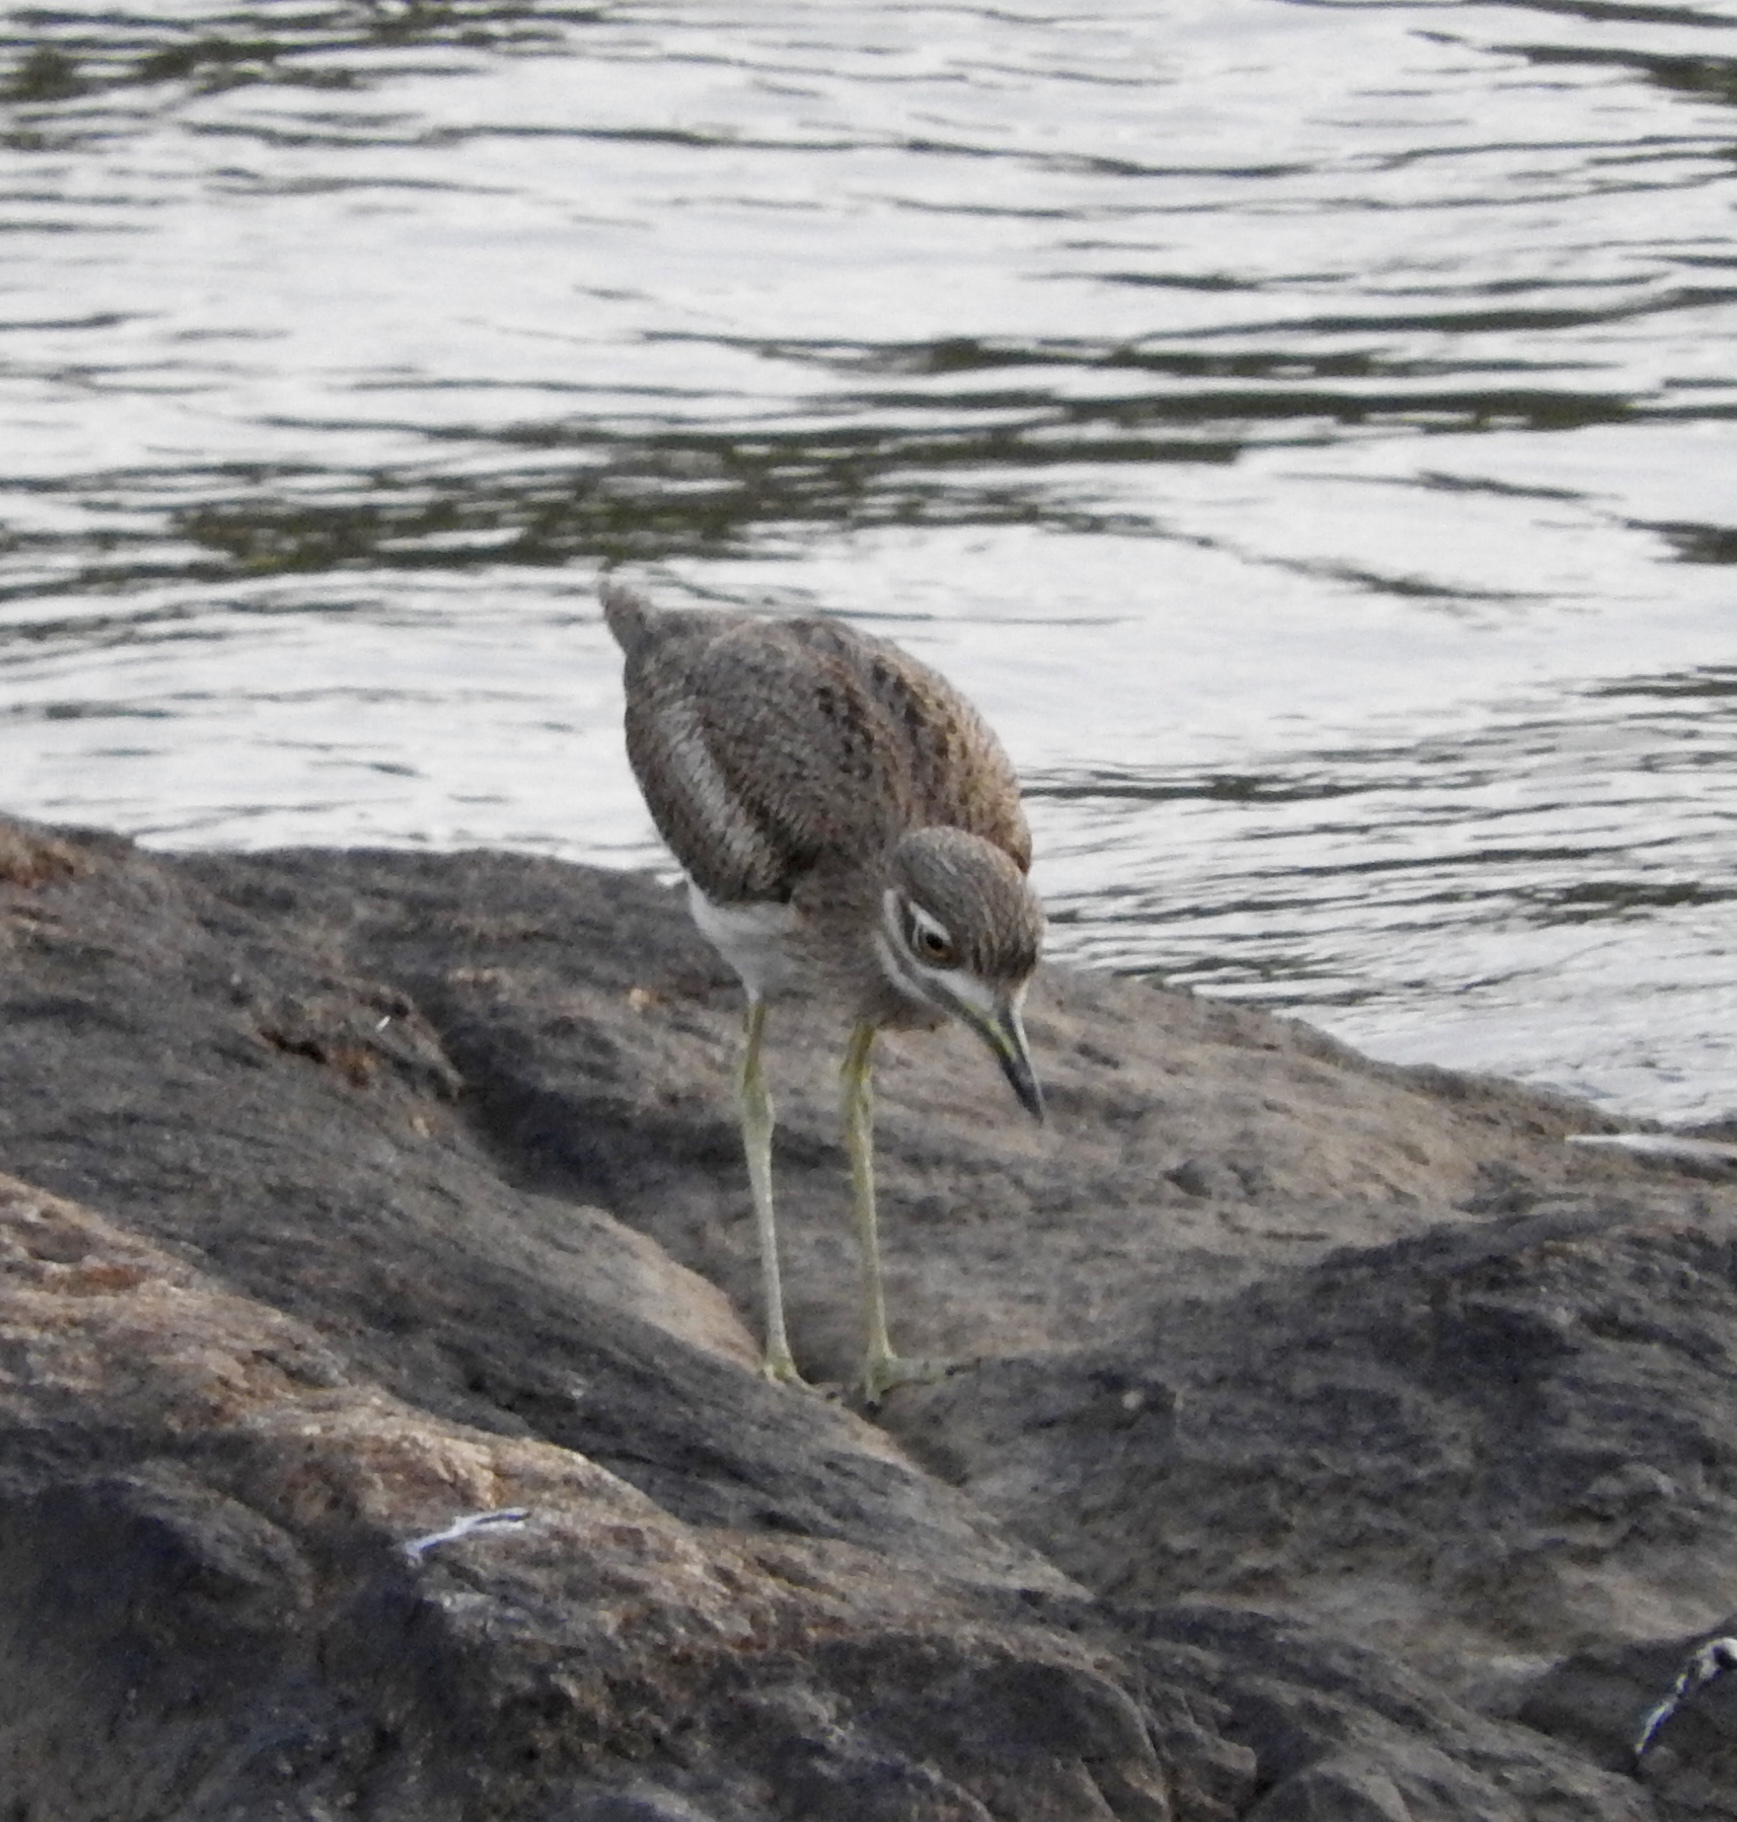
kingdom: Animalia
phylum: Chordata
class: Aves
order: Charadriiformes
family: Burhinidae
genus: Burhinus
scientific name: Burhinus vermiculatus
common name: Water thick-knee
